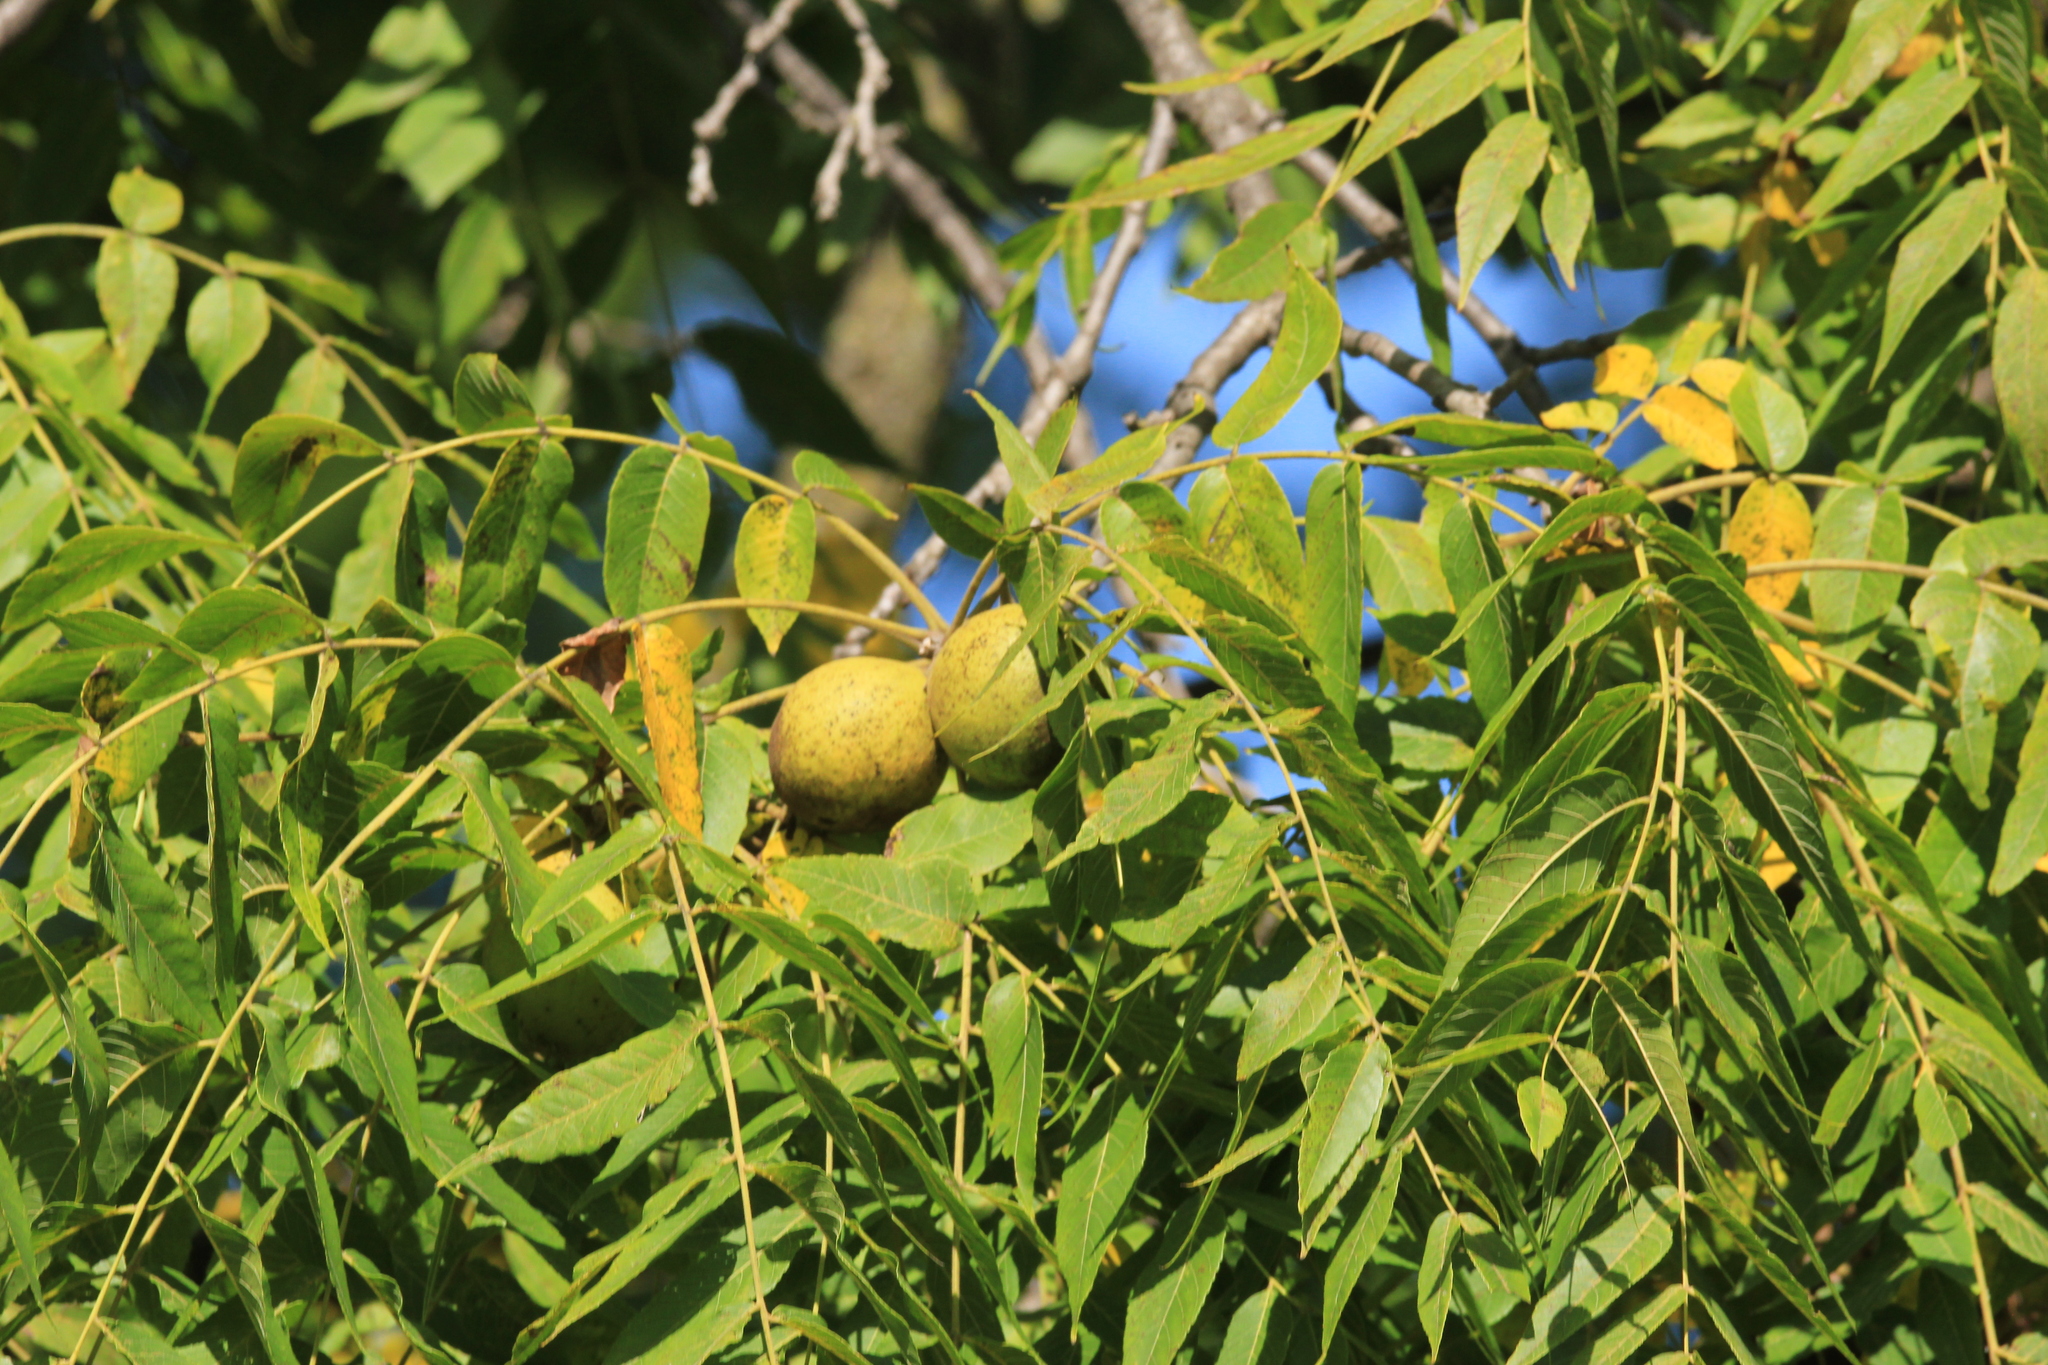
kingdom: Plantae
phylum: Tracheophyta
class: Magnoliopsida
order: Fagales
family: Juglandaceae
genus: Juglans
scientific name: Juglans nigra
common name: Black walnut
